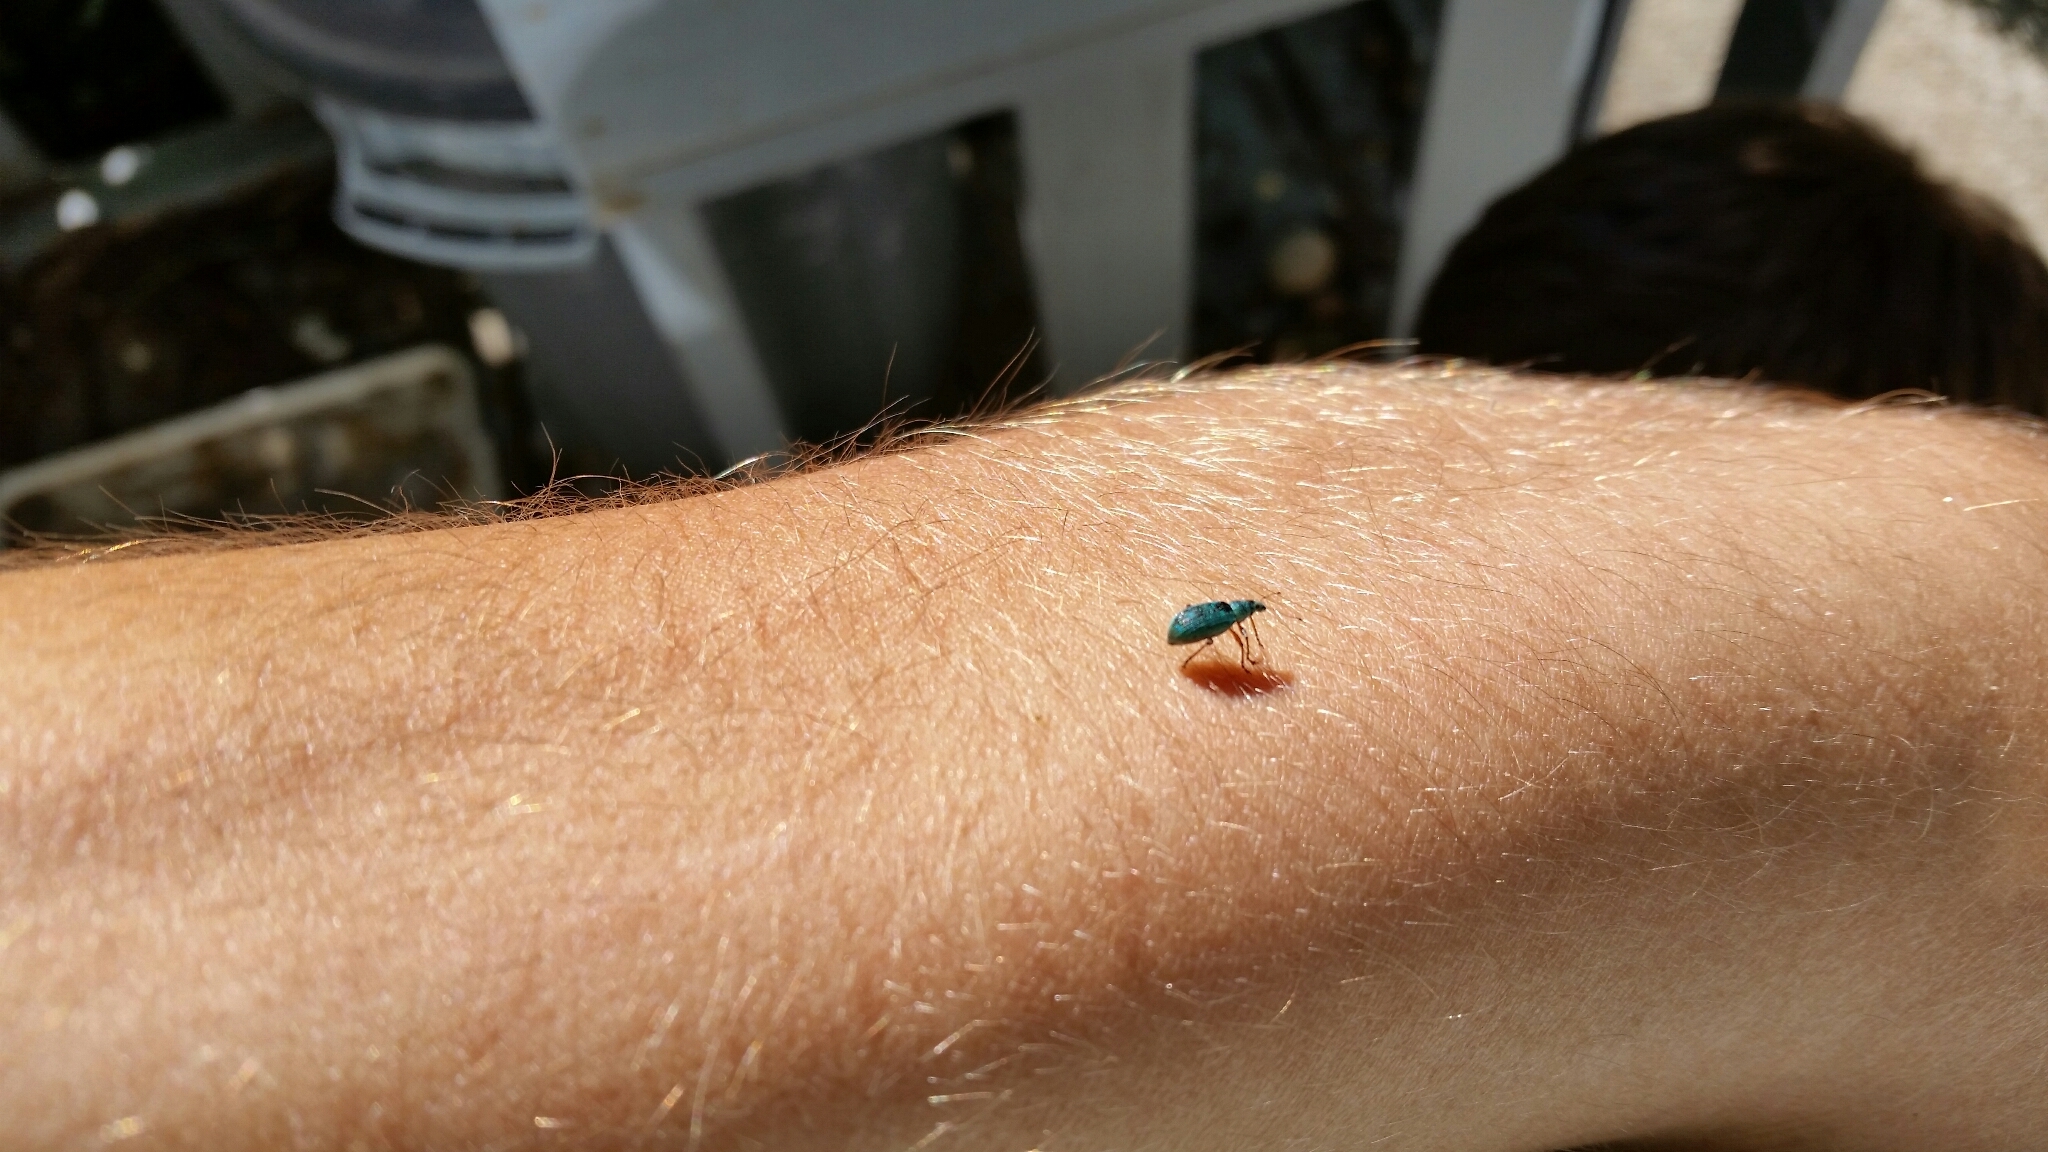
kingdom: Animalia
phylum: Arthropoda
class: Insecta
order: Coleoptera
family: Curculionidae
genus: Polydrusus
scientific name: Polydrusus formosus
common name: Weevil
